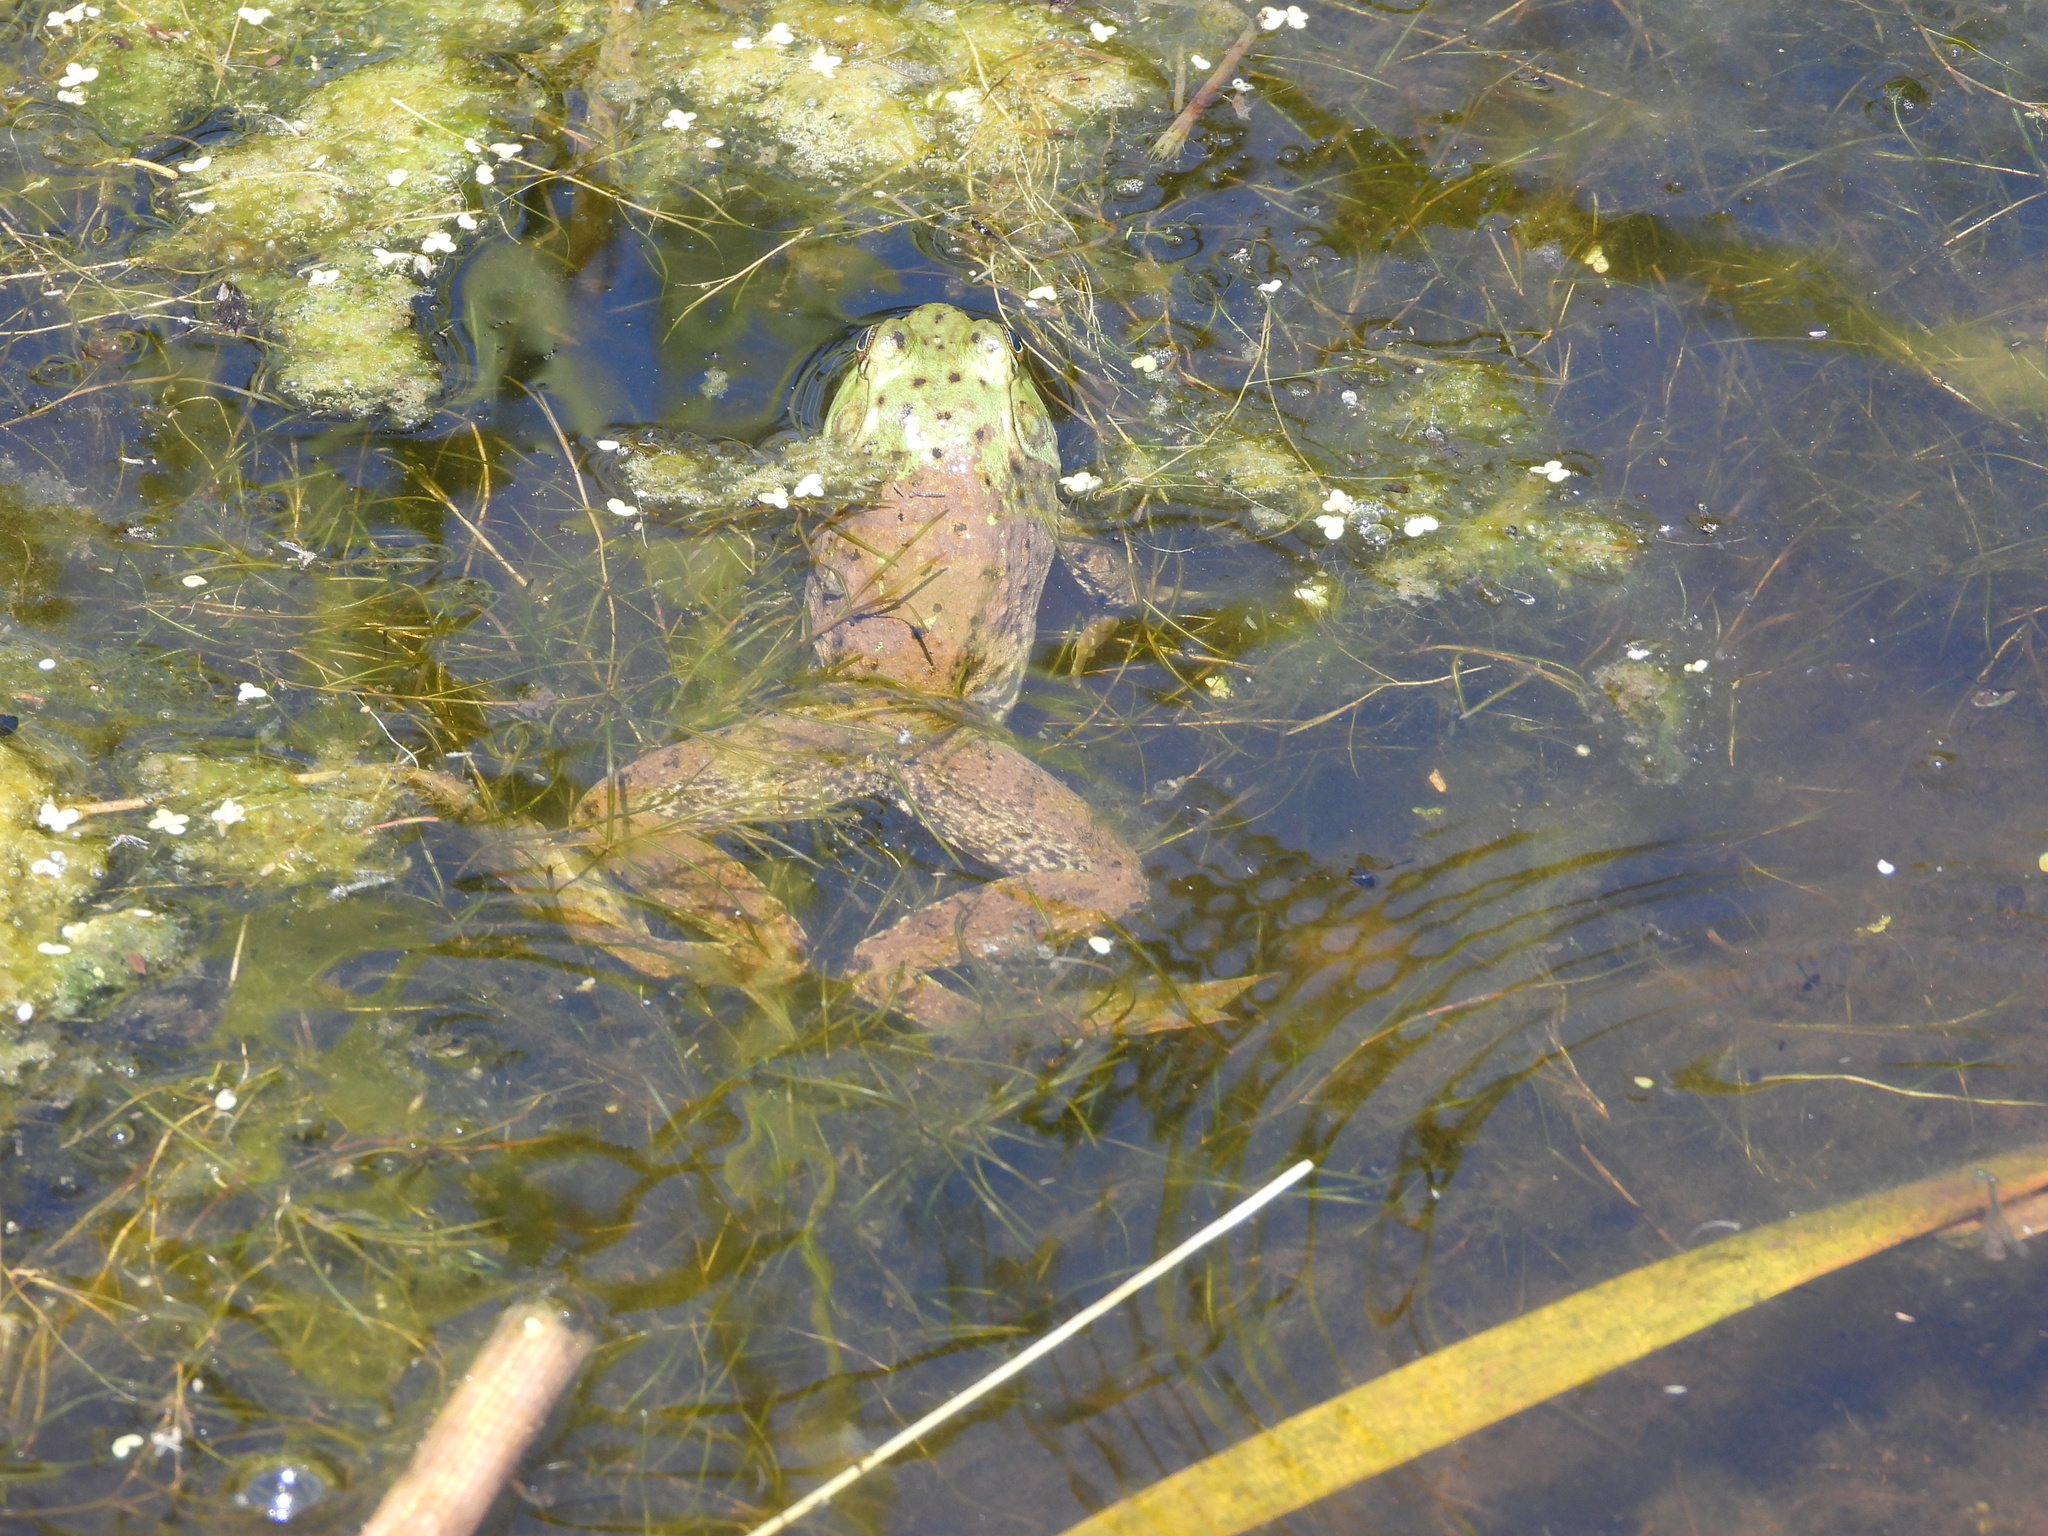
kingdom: Animalia
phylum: Chordata
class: Amphibia
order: Anura
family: Ranidae
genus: Lithobates
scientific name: Lithobates catesbeianus
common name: American bullfrog
